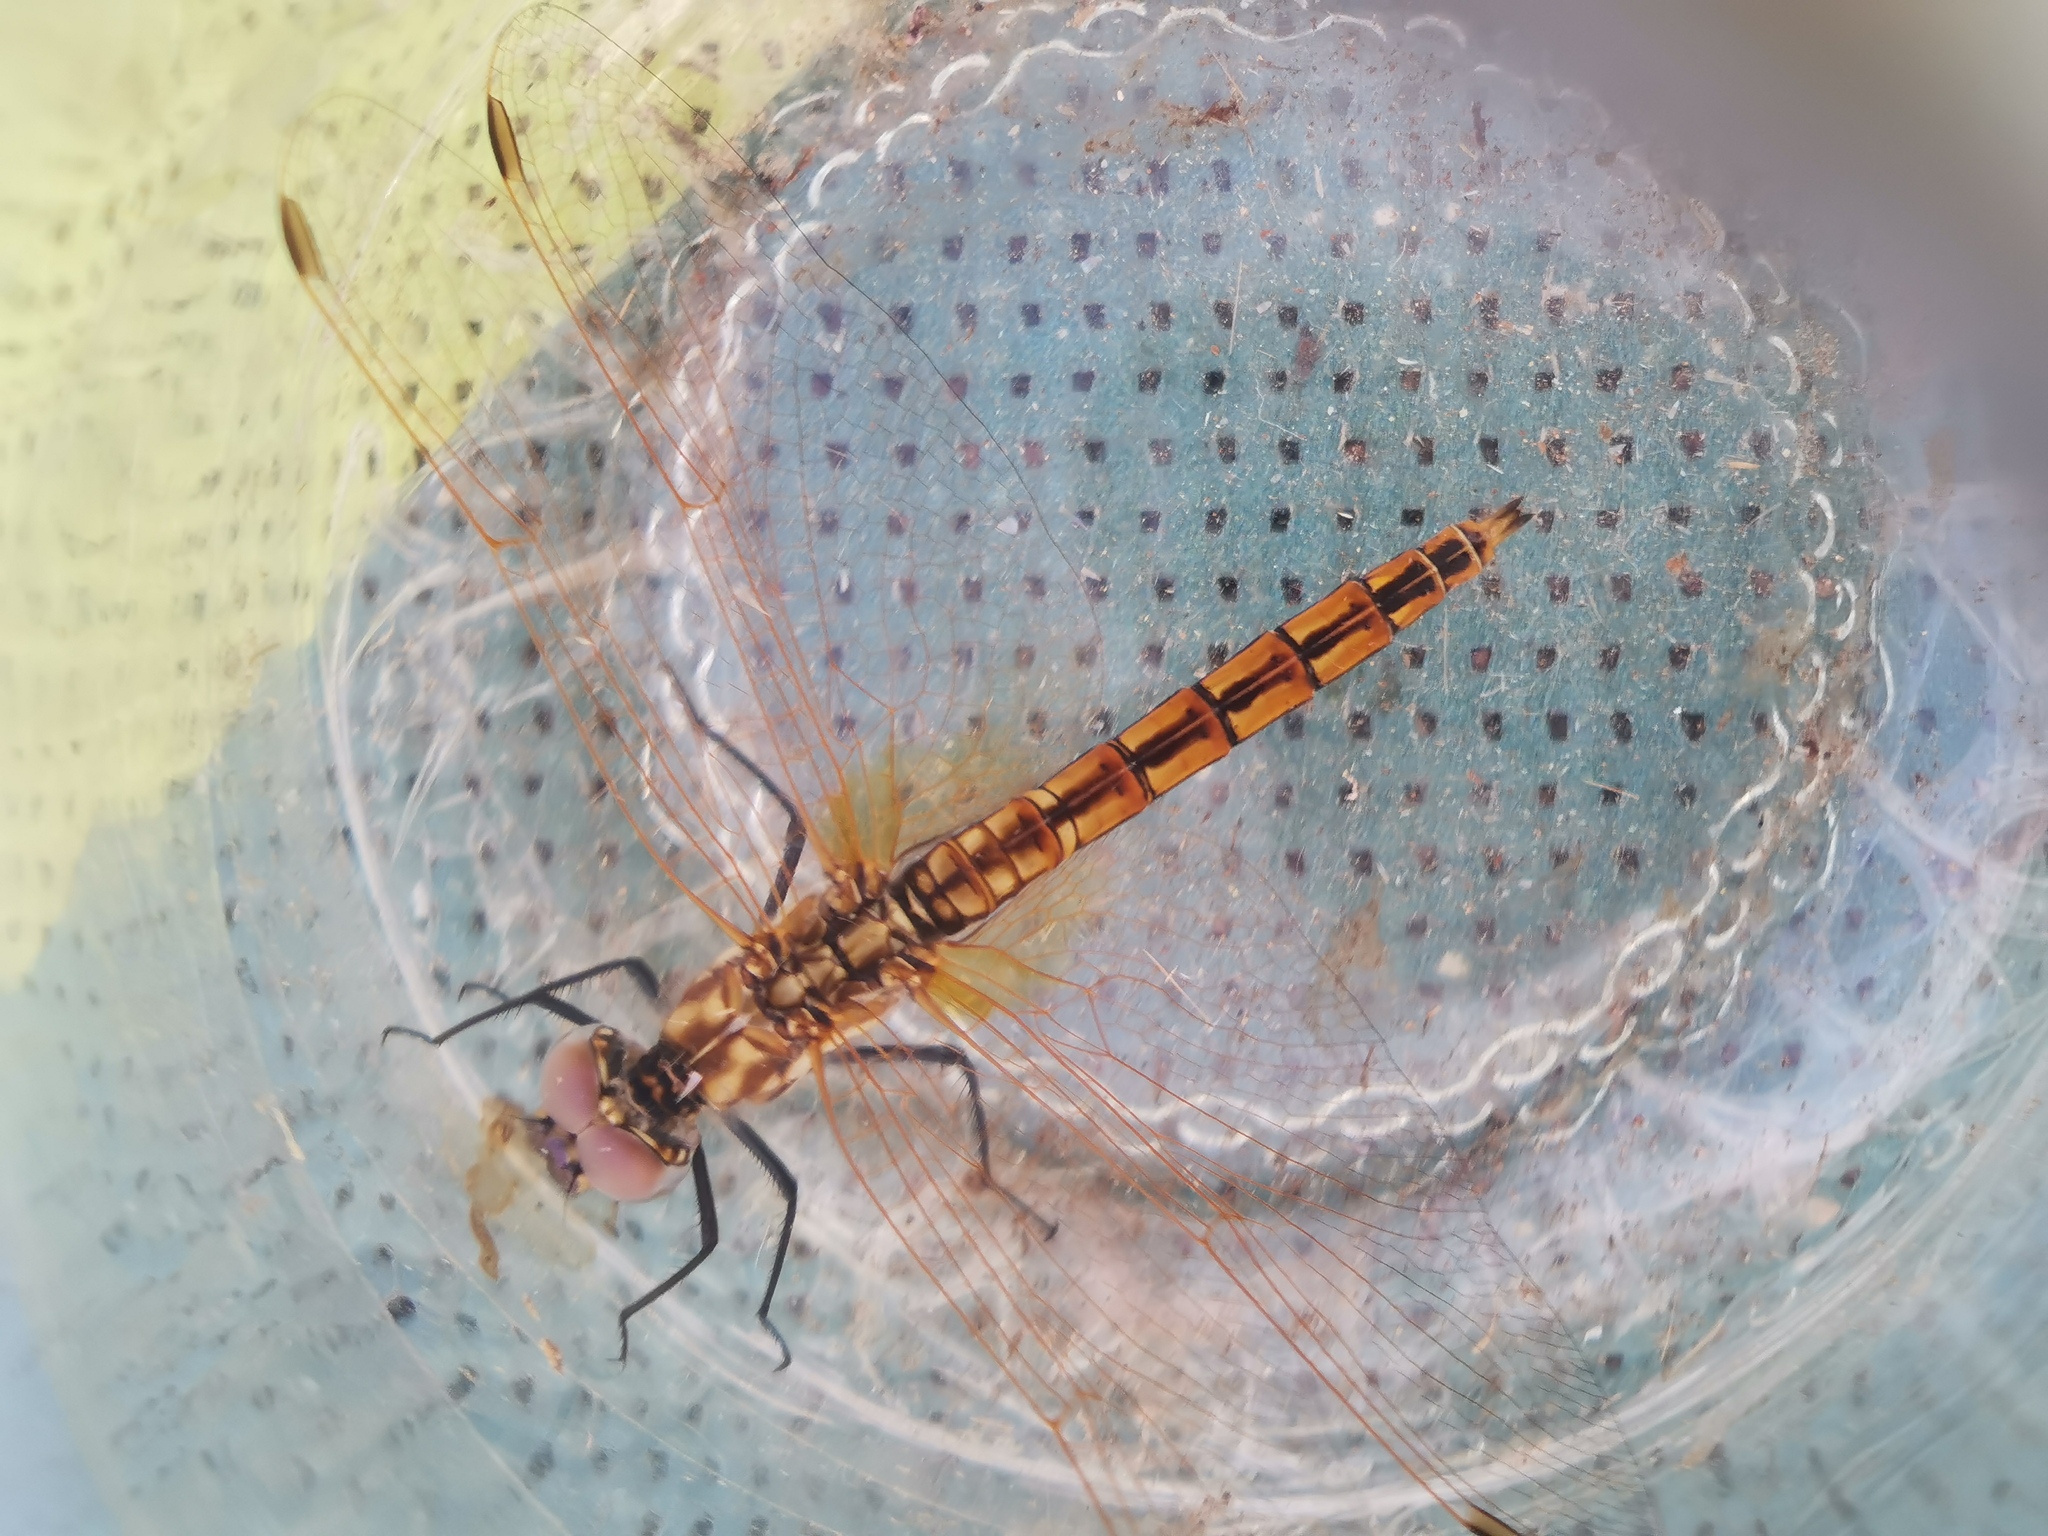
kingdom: Animalia
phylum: Arthropoda
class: Insecta
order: Odonata
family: Libellulidae
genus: Trithemis
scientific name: Trithemis annulata
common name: Violet dropwing
